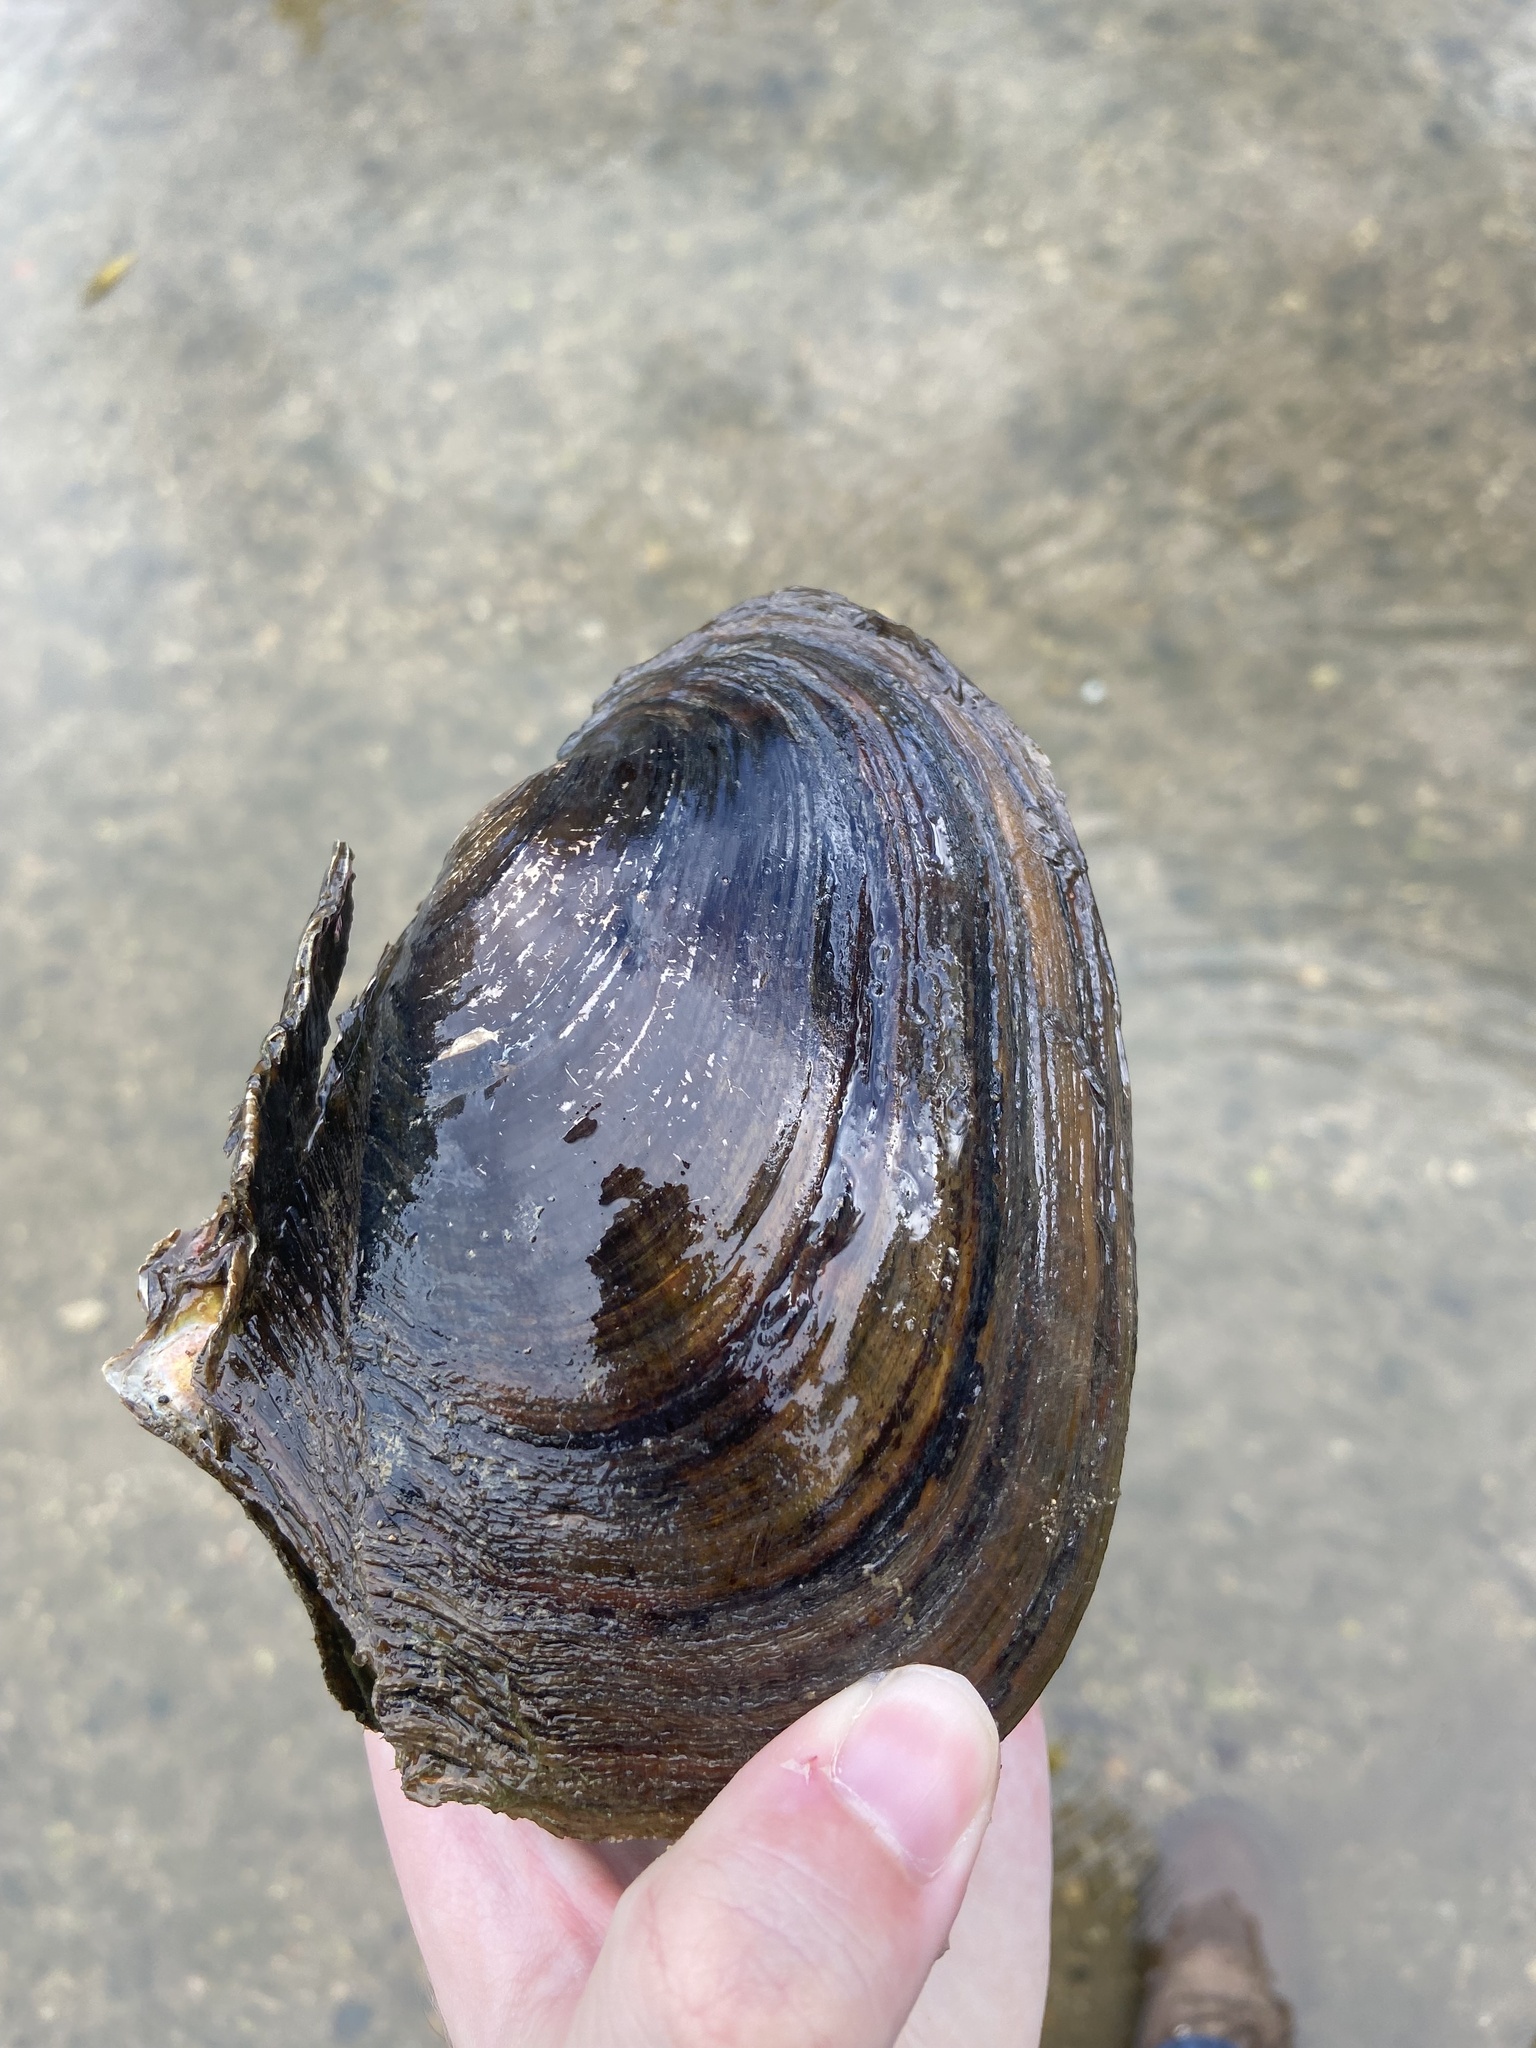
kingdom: Animalia
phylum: Mollusca
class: Bivalvia
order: Unionida
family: Unionidae
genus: Potamilus
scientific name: Potamilus alatus
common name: Pink heelsplitter
